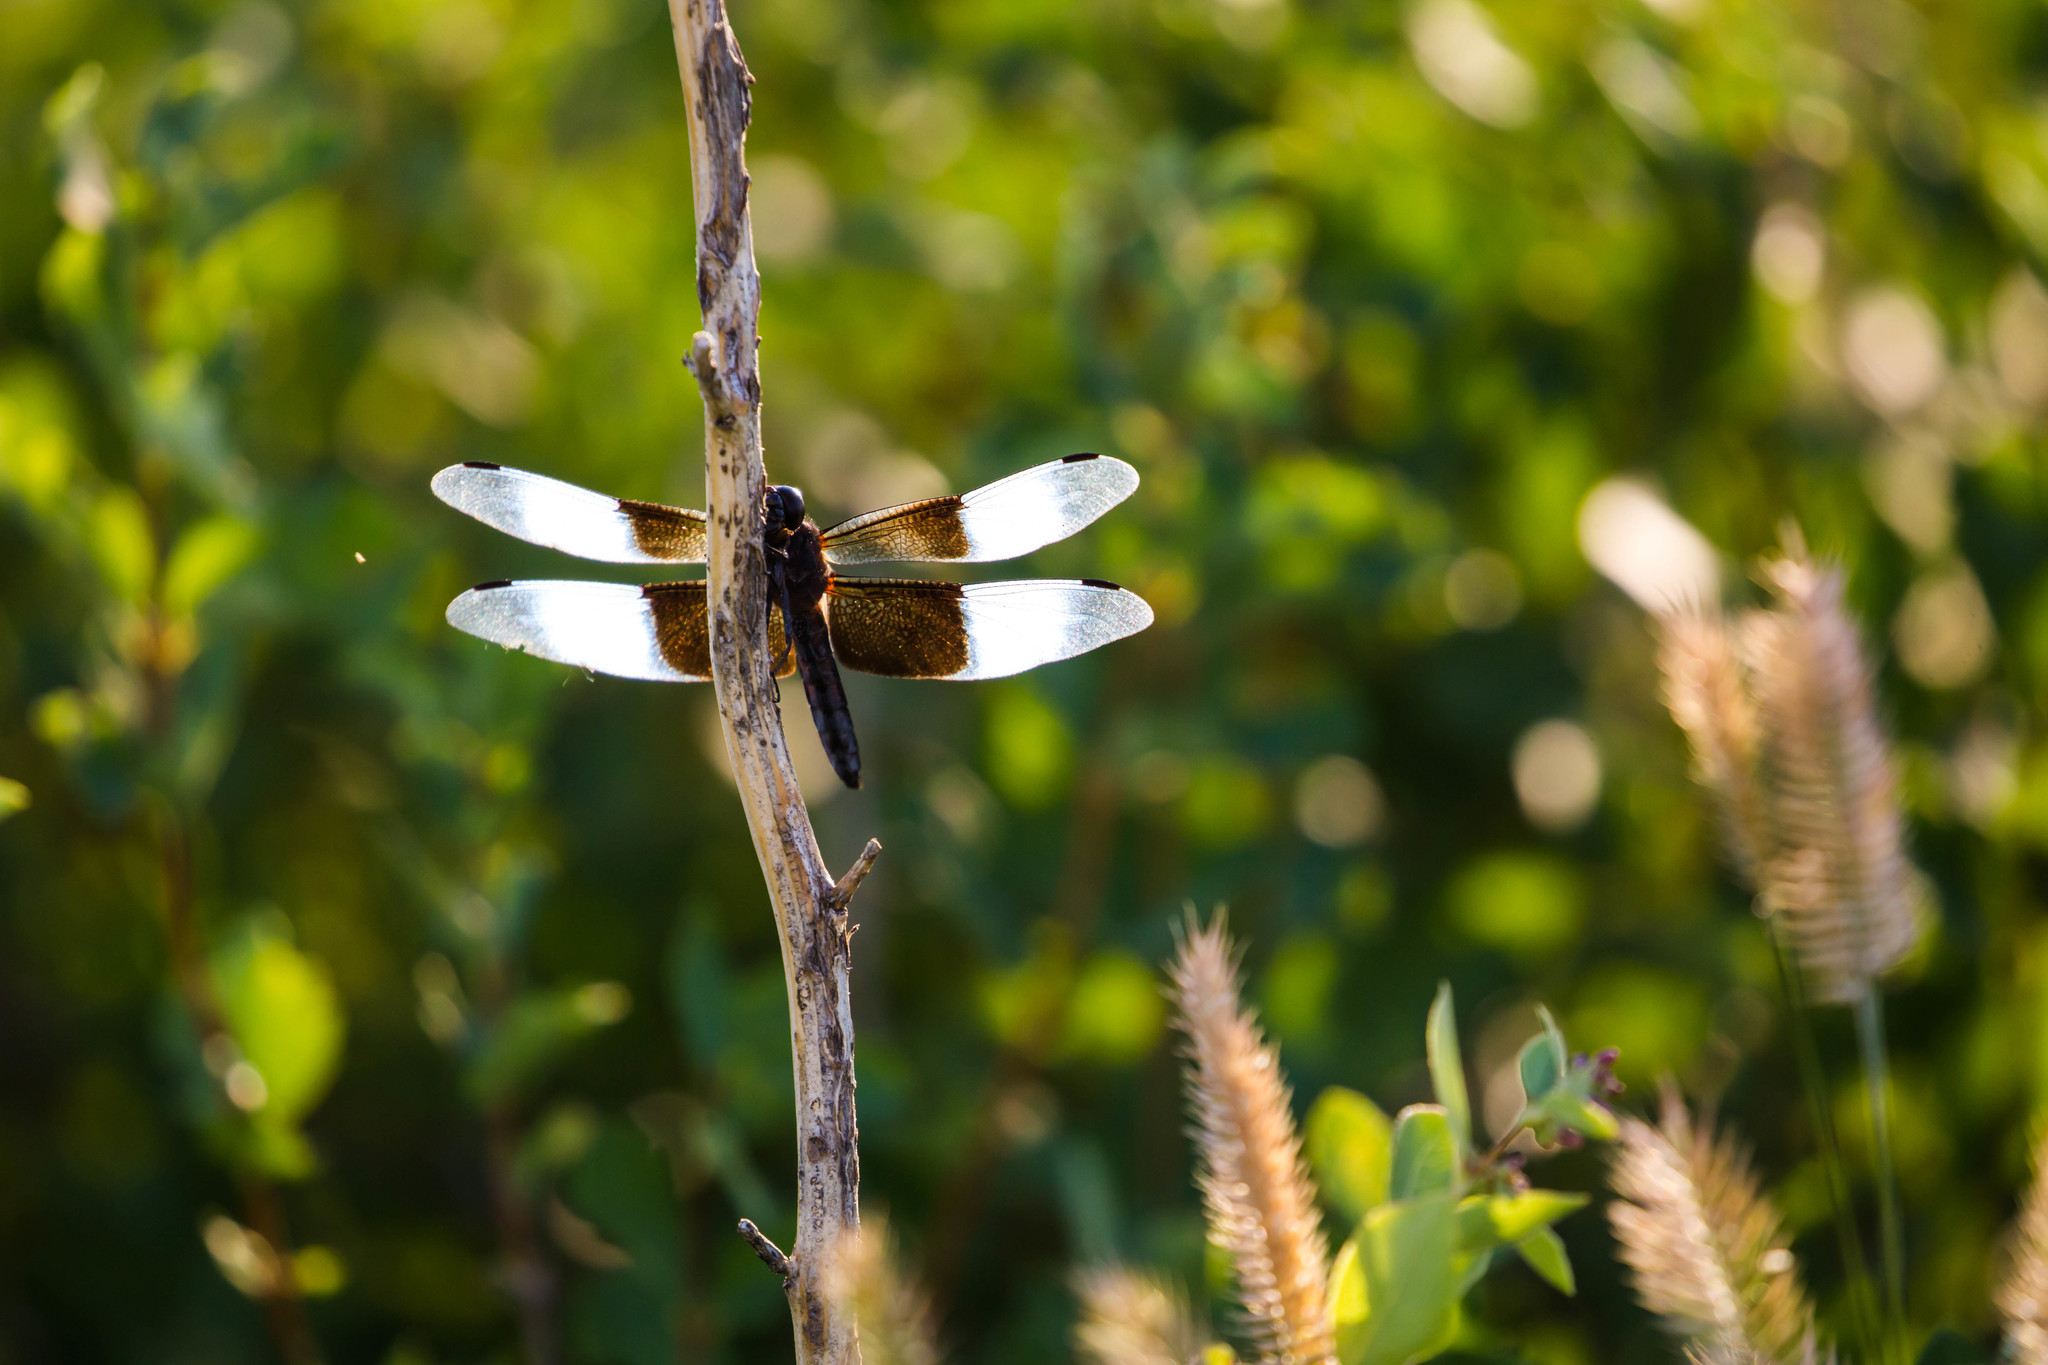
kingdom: Animalia
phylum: Arthropoda
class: Insecta
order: Odonata
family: Libellulidae
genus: Libellula
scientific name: Libellula luctuosa
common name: Widow skimmer
